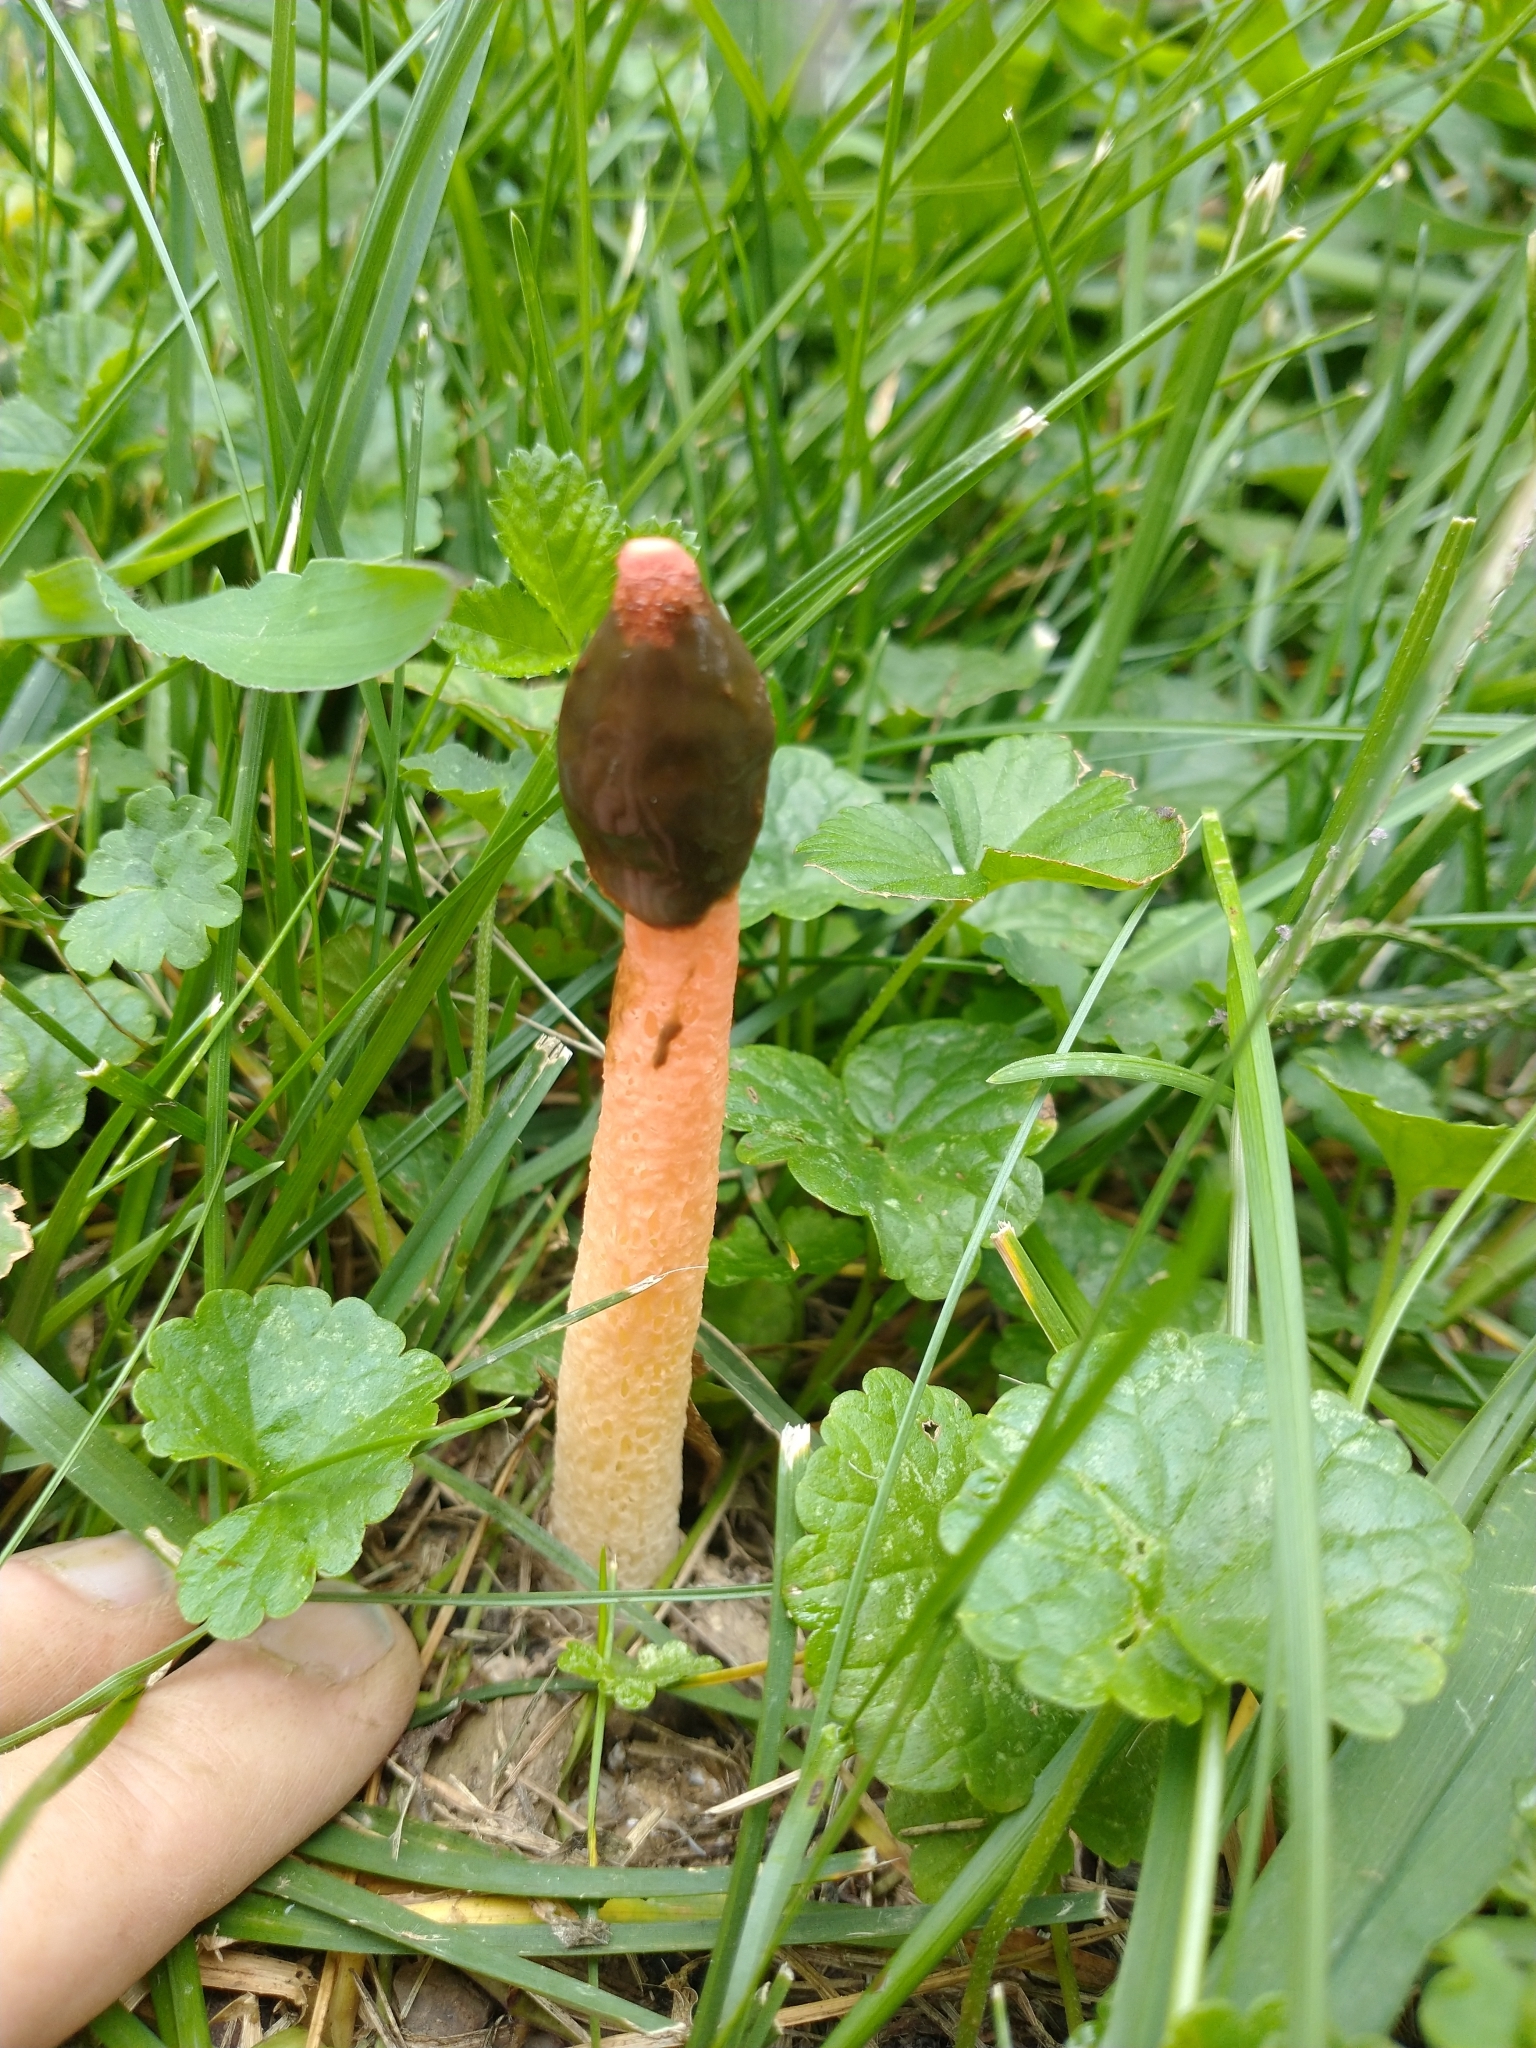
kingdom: Fungi
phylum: Basidiomycota
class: Agaricomycetes
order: Phallales
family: Phallaceae
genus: Phallus
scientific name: Phallus rugulosus
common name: Wrinkly stinkhorn
